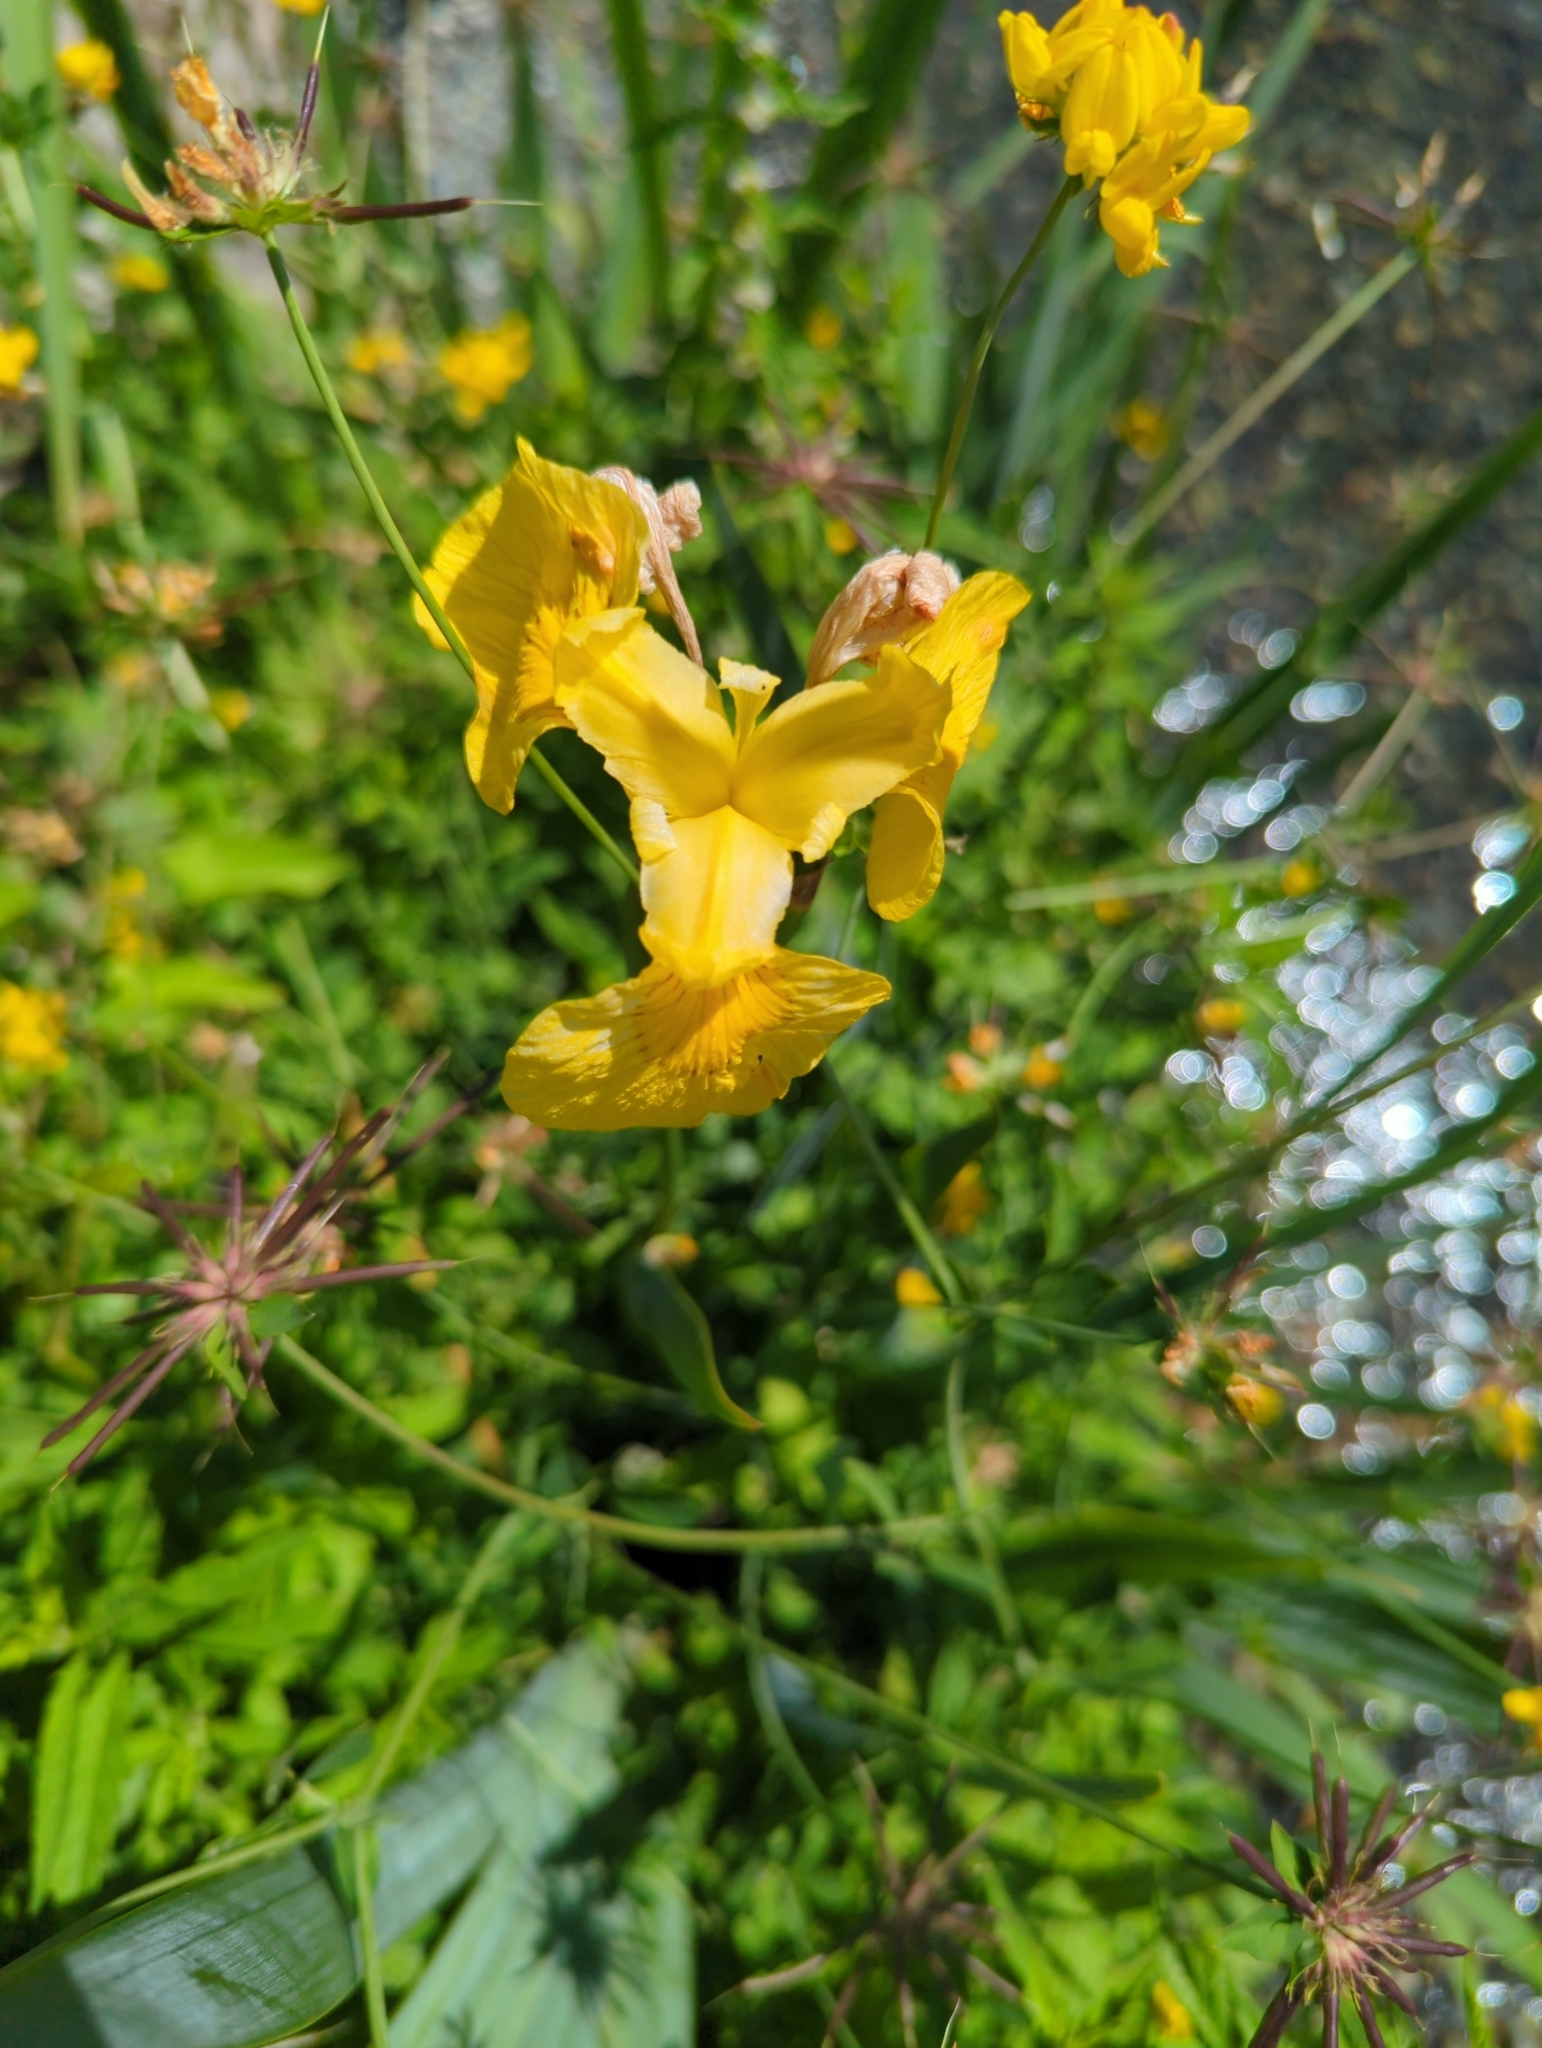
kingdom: Plantae
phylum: Tracheophyta
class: Liliopsida
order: Asparagales
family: Iridaceae
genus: Iris
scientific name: Iris pseudacorus
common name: Yellow flag
